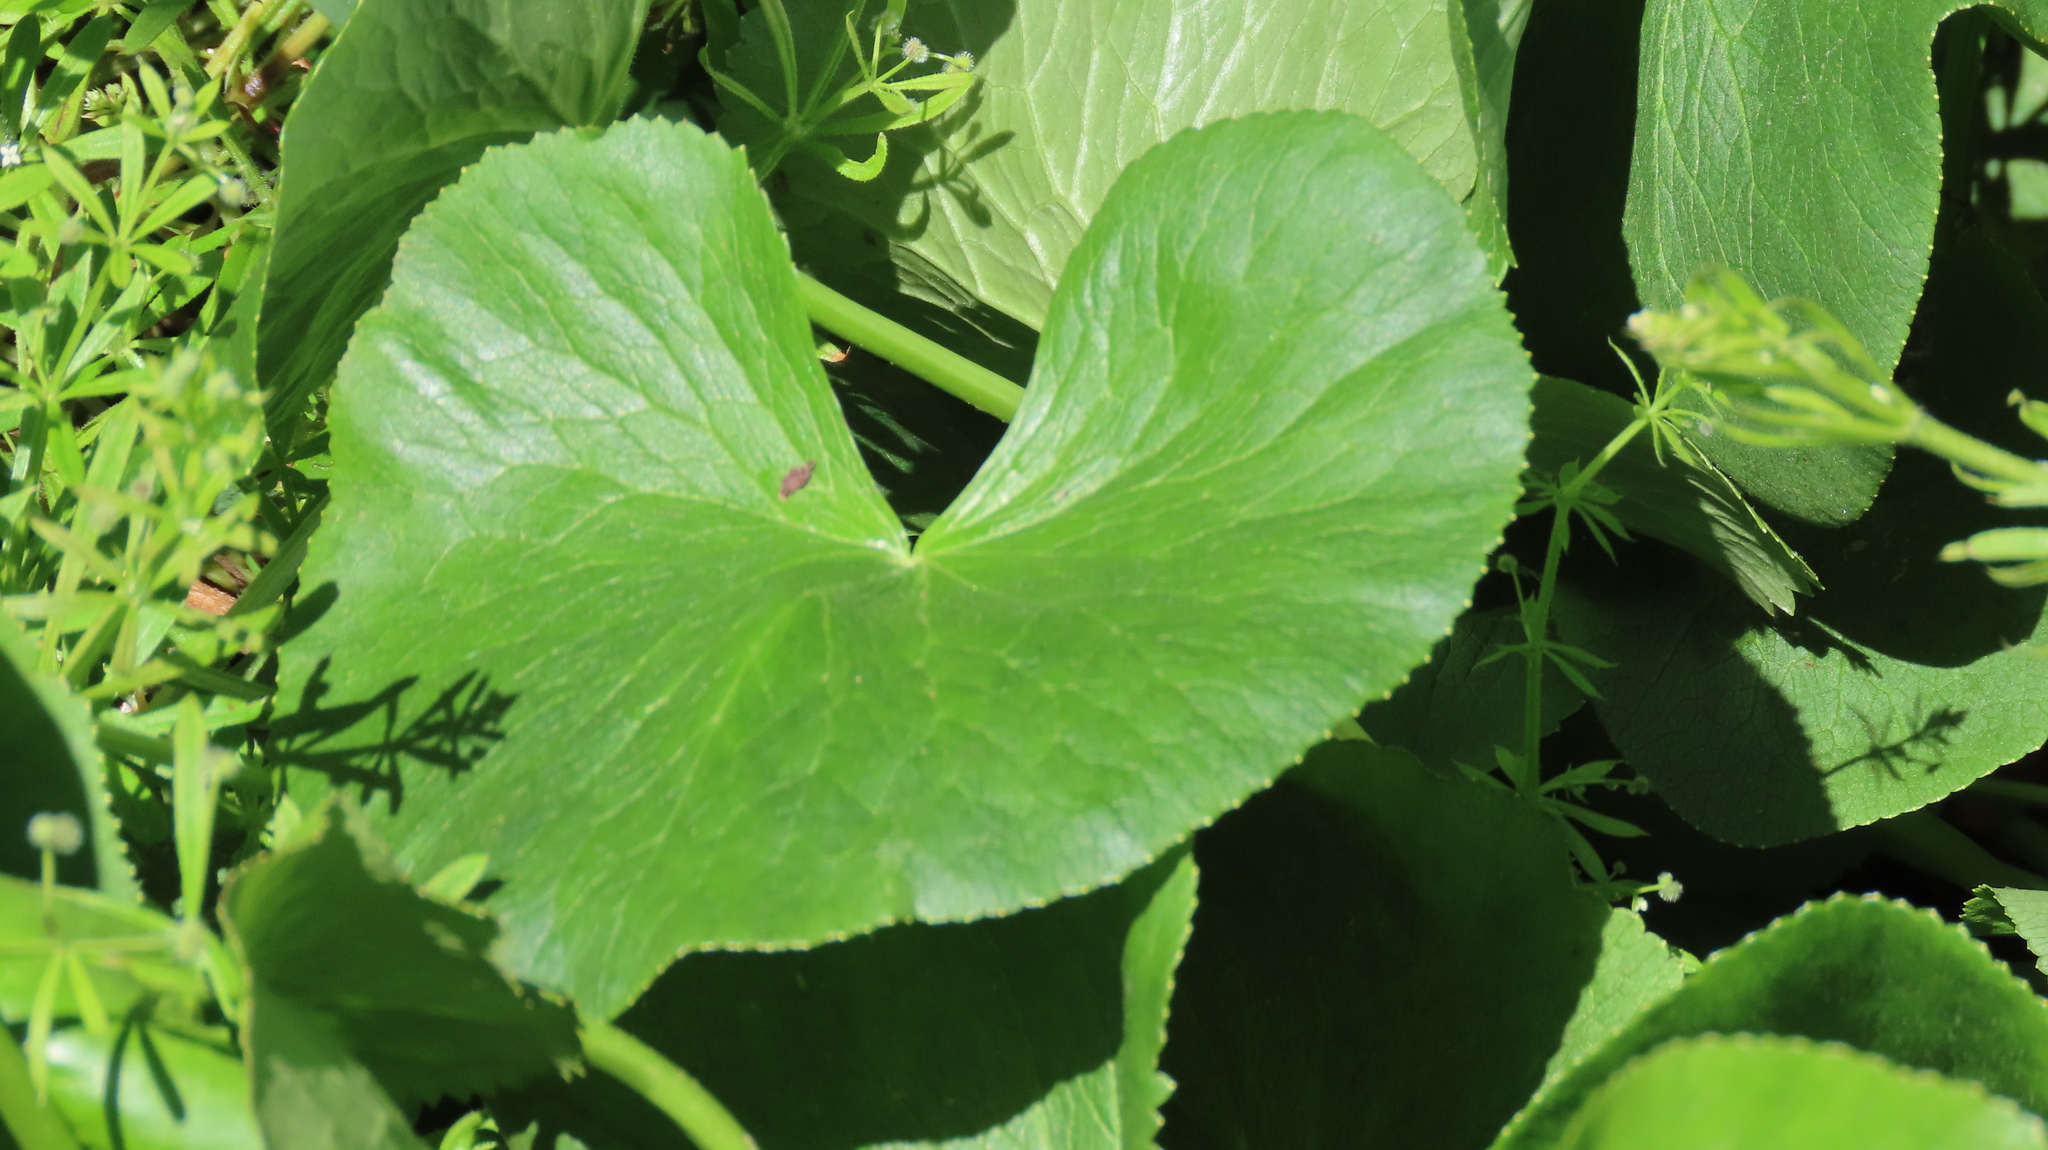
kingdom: Plantae
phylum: Tracheophyta
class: Magnoliopsida
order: Ranunculales
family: Ranunculaceae
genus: Caltha
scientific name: Caltha palustris
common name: Marsh marigold
